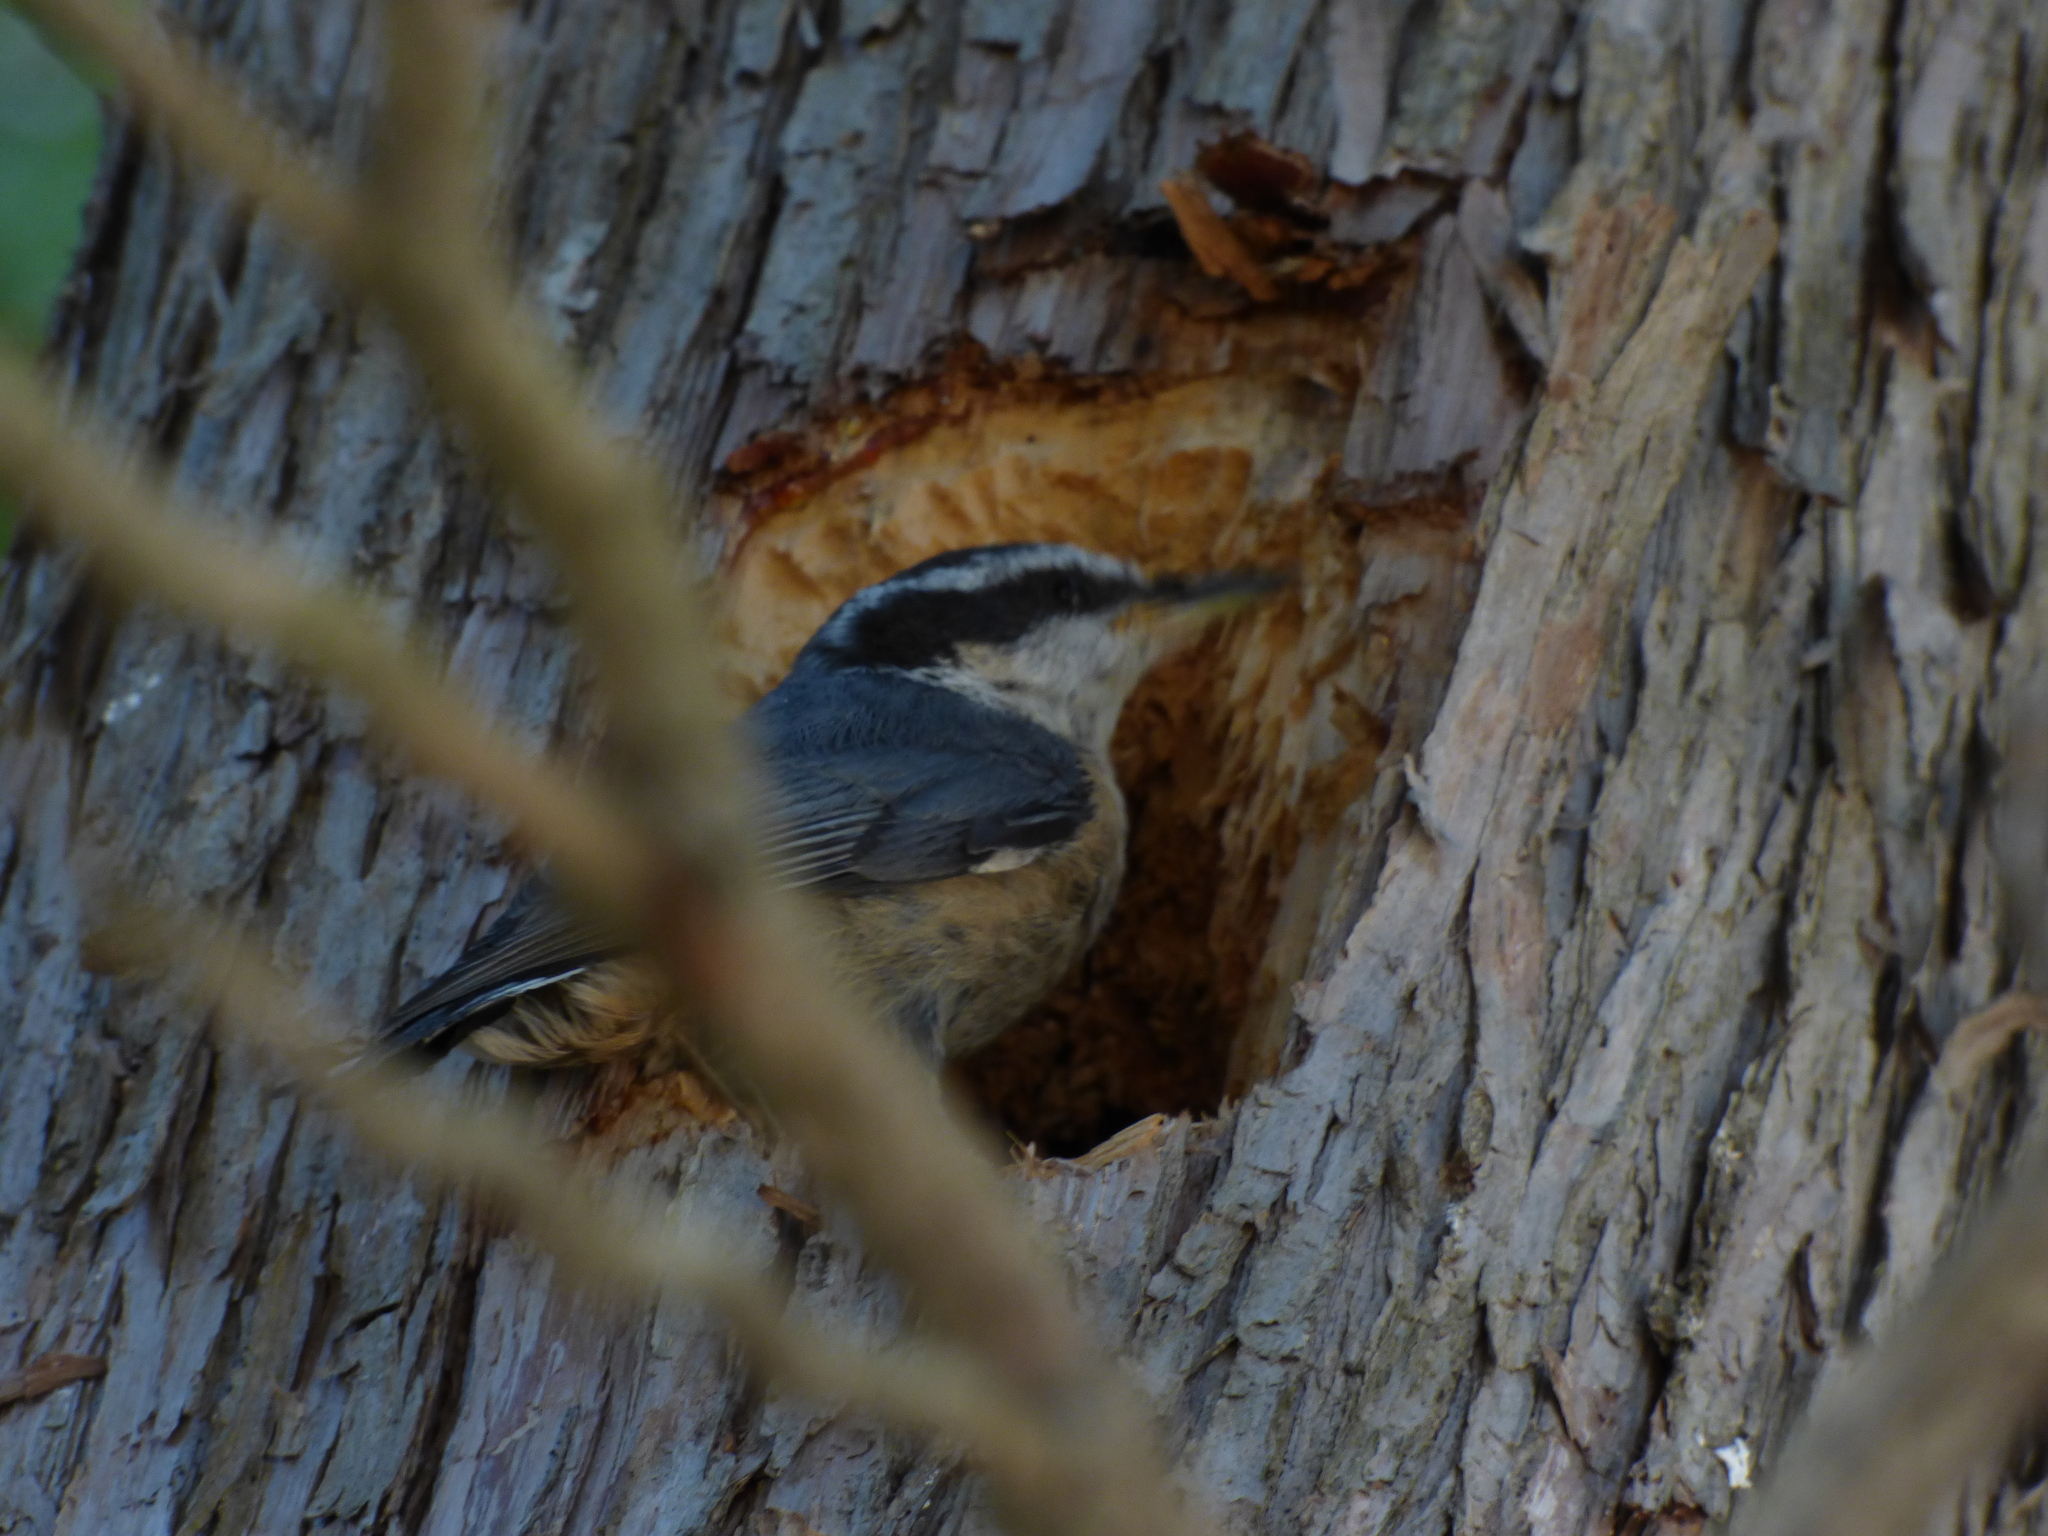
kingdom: Animalia
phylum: Chordata
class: Aves
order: Passeriformes
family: Sittidae
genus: Sitta
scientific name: Sitta canadensis
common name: Red-breasted nuthatch
